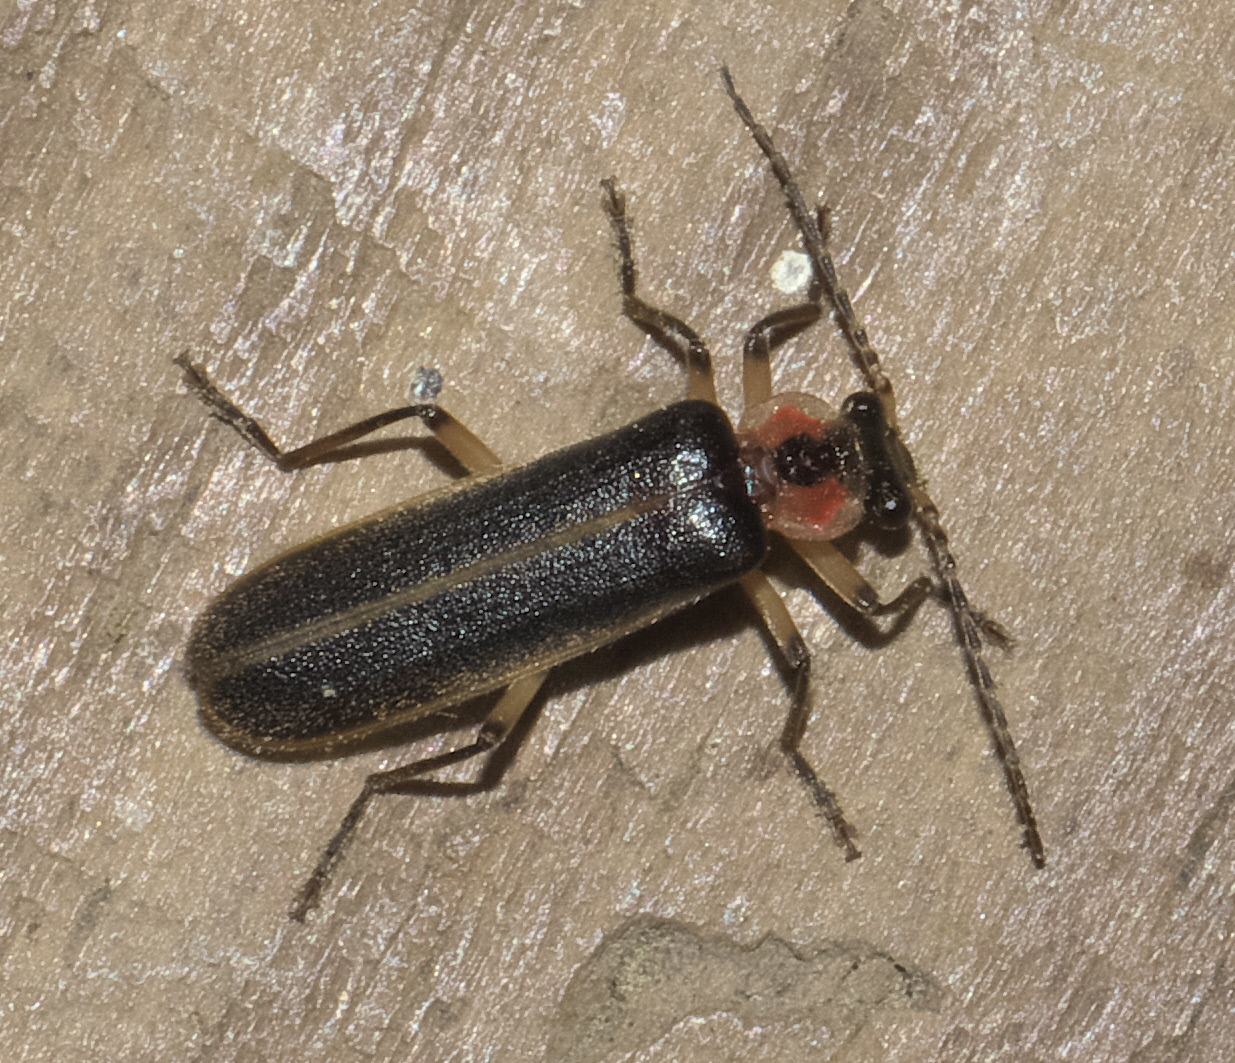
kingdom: Animalia
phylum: Arthropoda
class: Insecta
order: Coleoptera
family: Cantharidae
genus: Podabrus
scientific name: Podabrus basilaris
